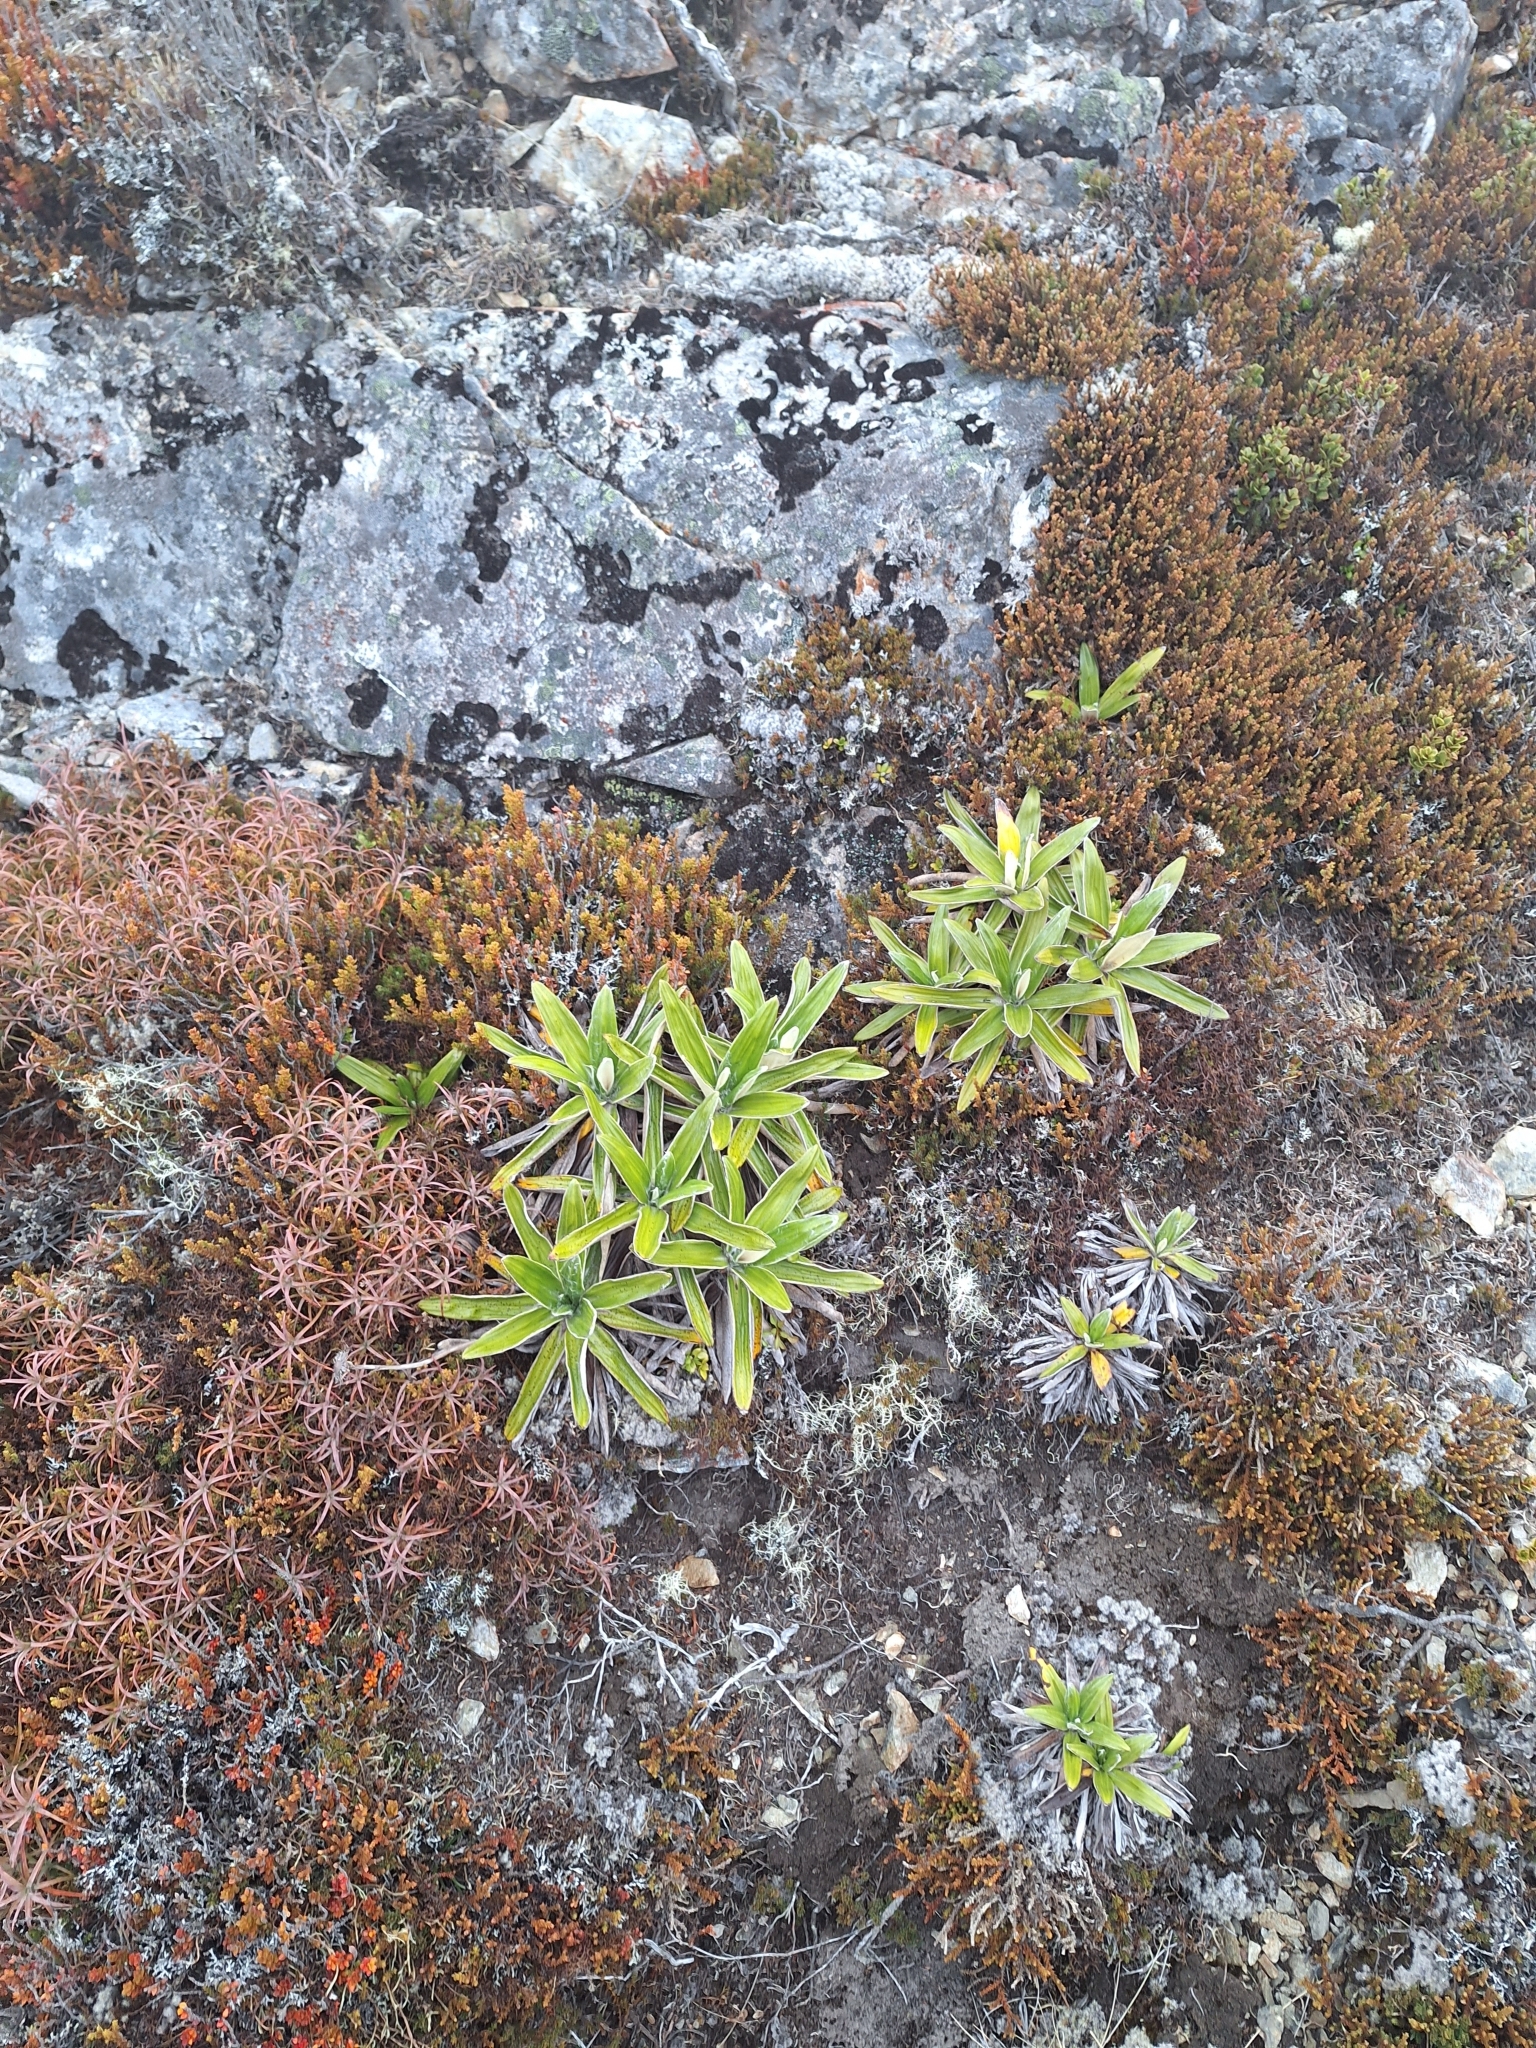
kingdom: Plantae
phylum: Tracheophyta
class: Magnoliopsida
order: Asterales
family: Asteraceae
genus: Celmisia
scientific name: Celmisia spectabilis
